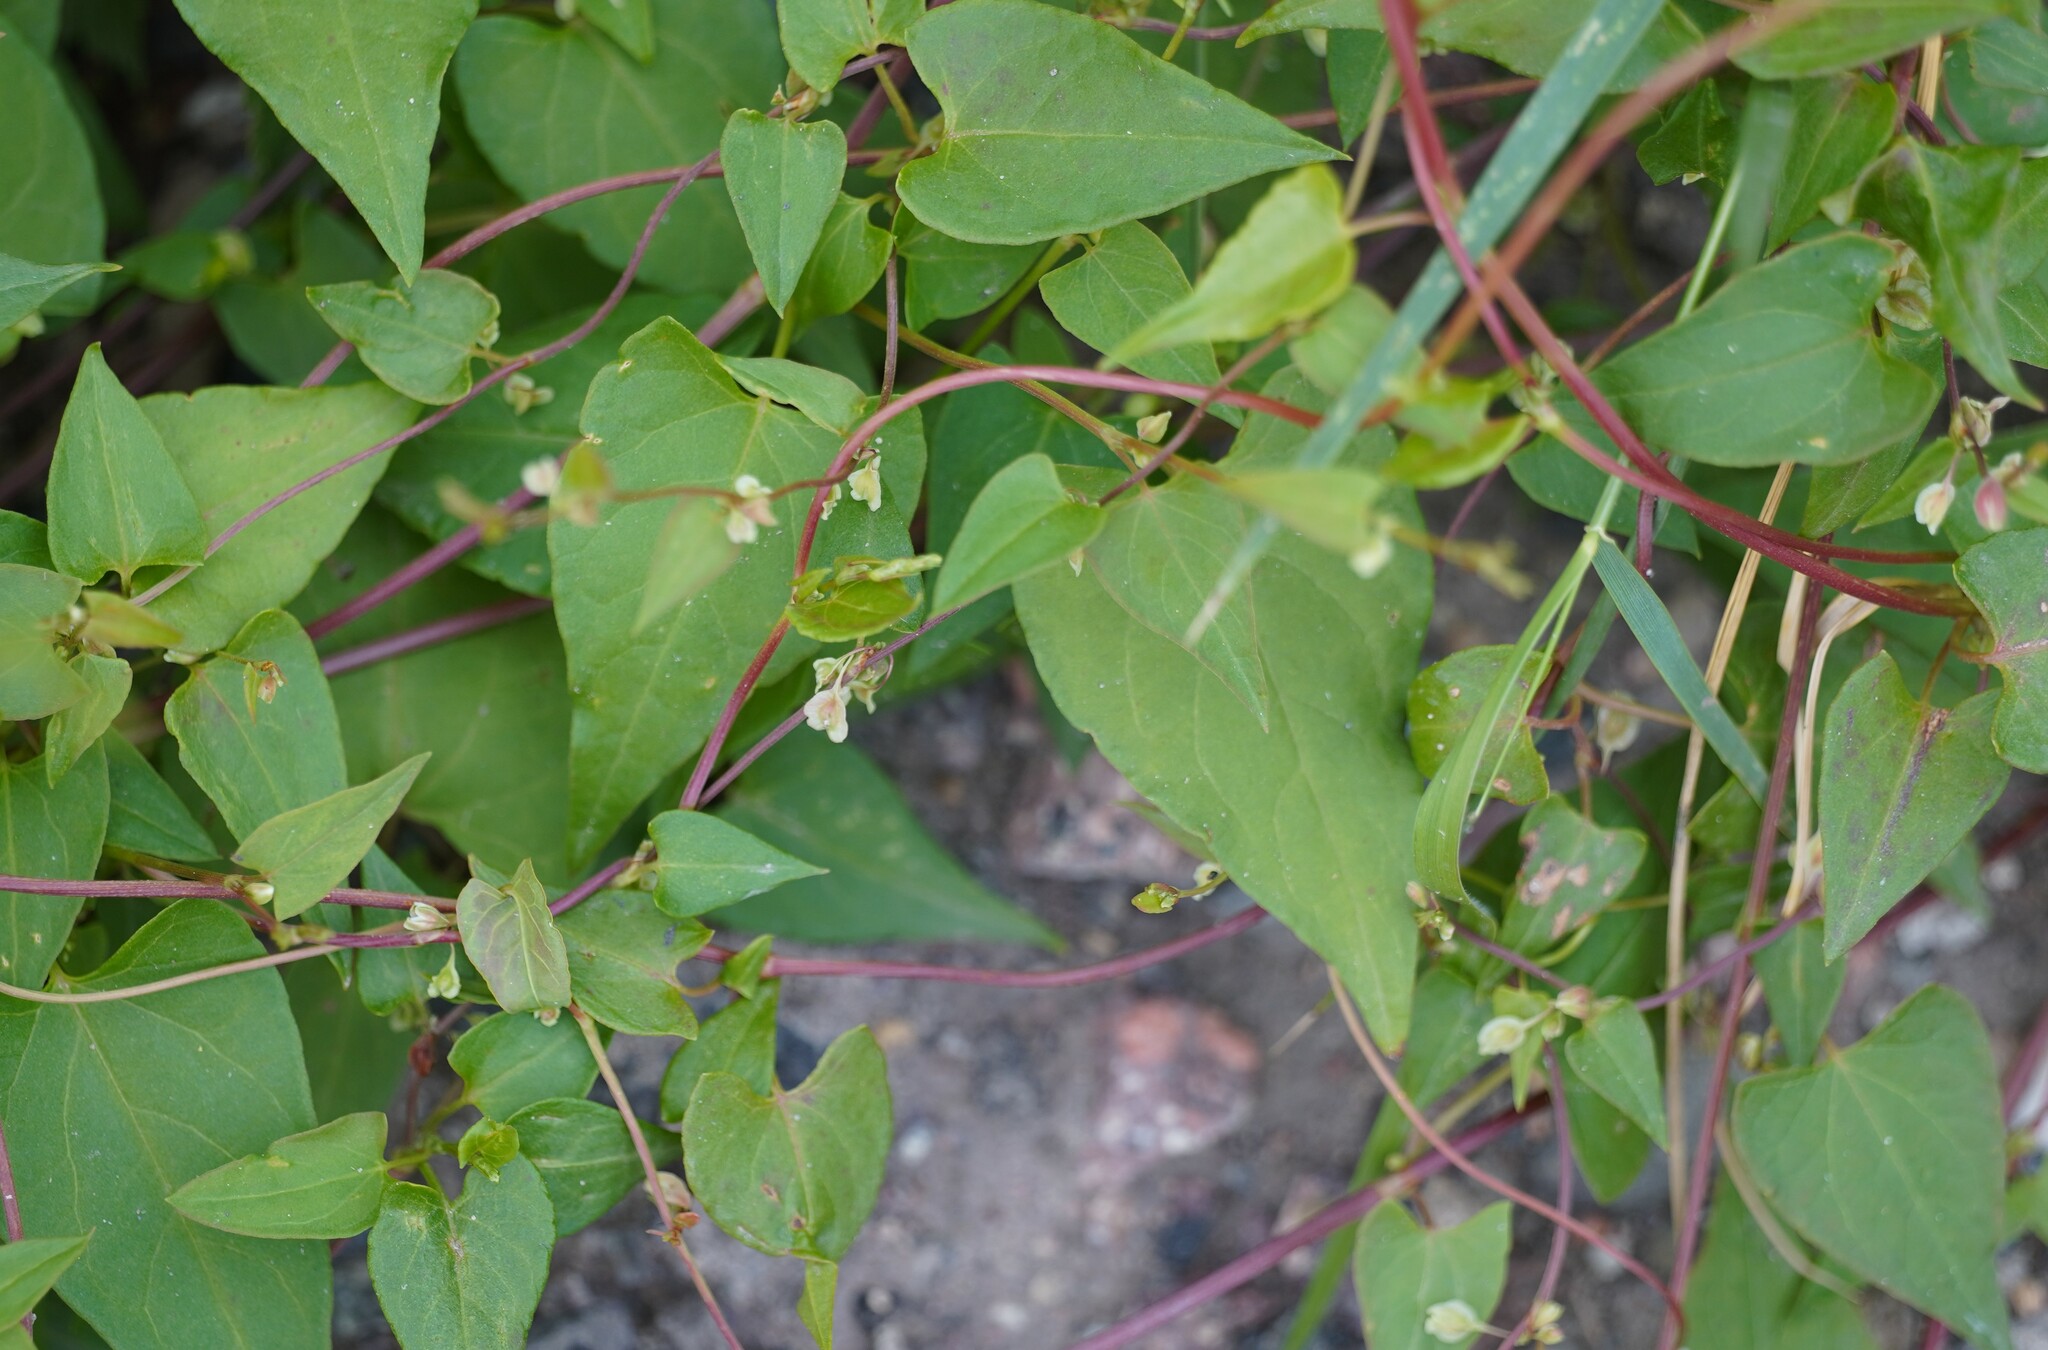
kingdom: Plantae
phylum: Tracheophyta
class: Magnoliopsida
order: Caryophyllales
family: Polygonaceae
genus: Fallopia
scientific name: Fallopia dumetorum
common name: Copse-bindweed
